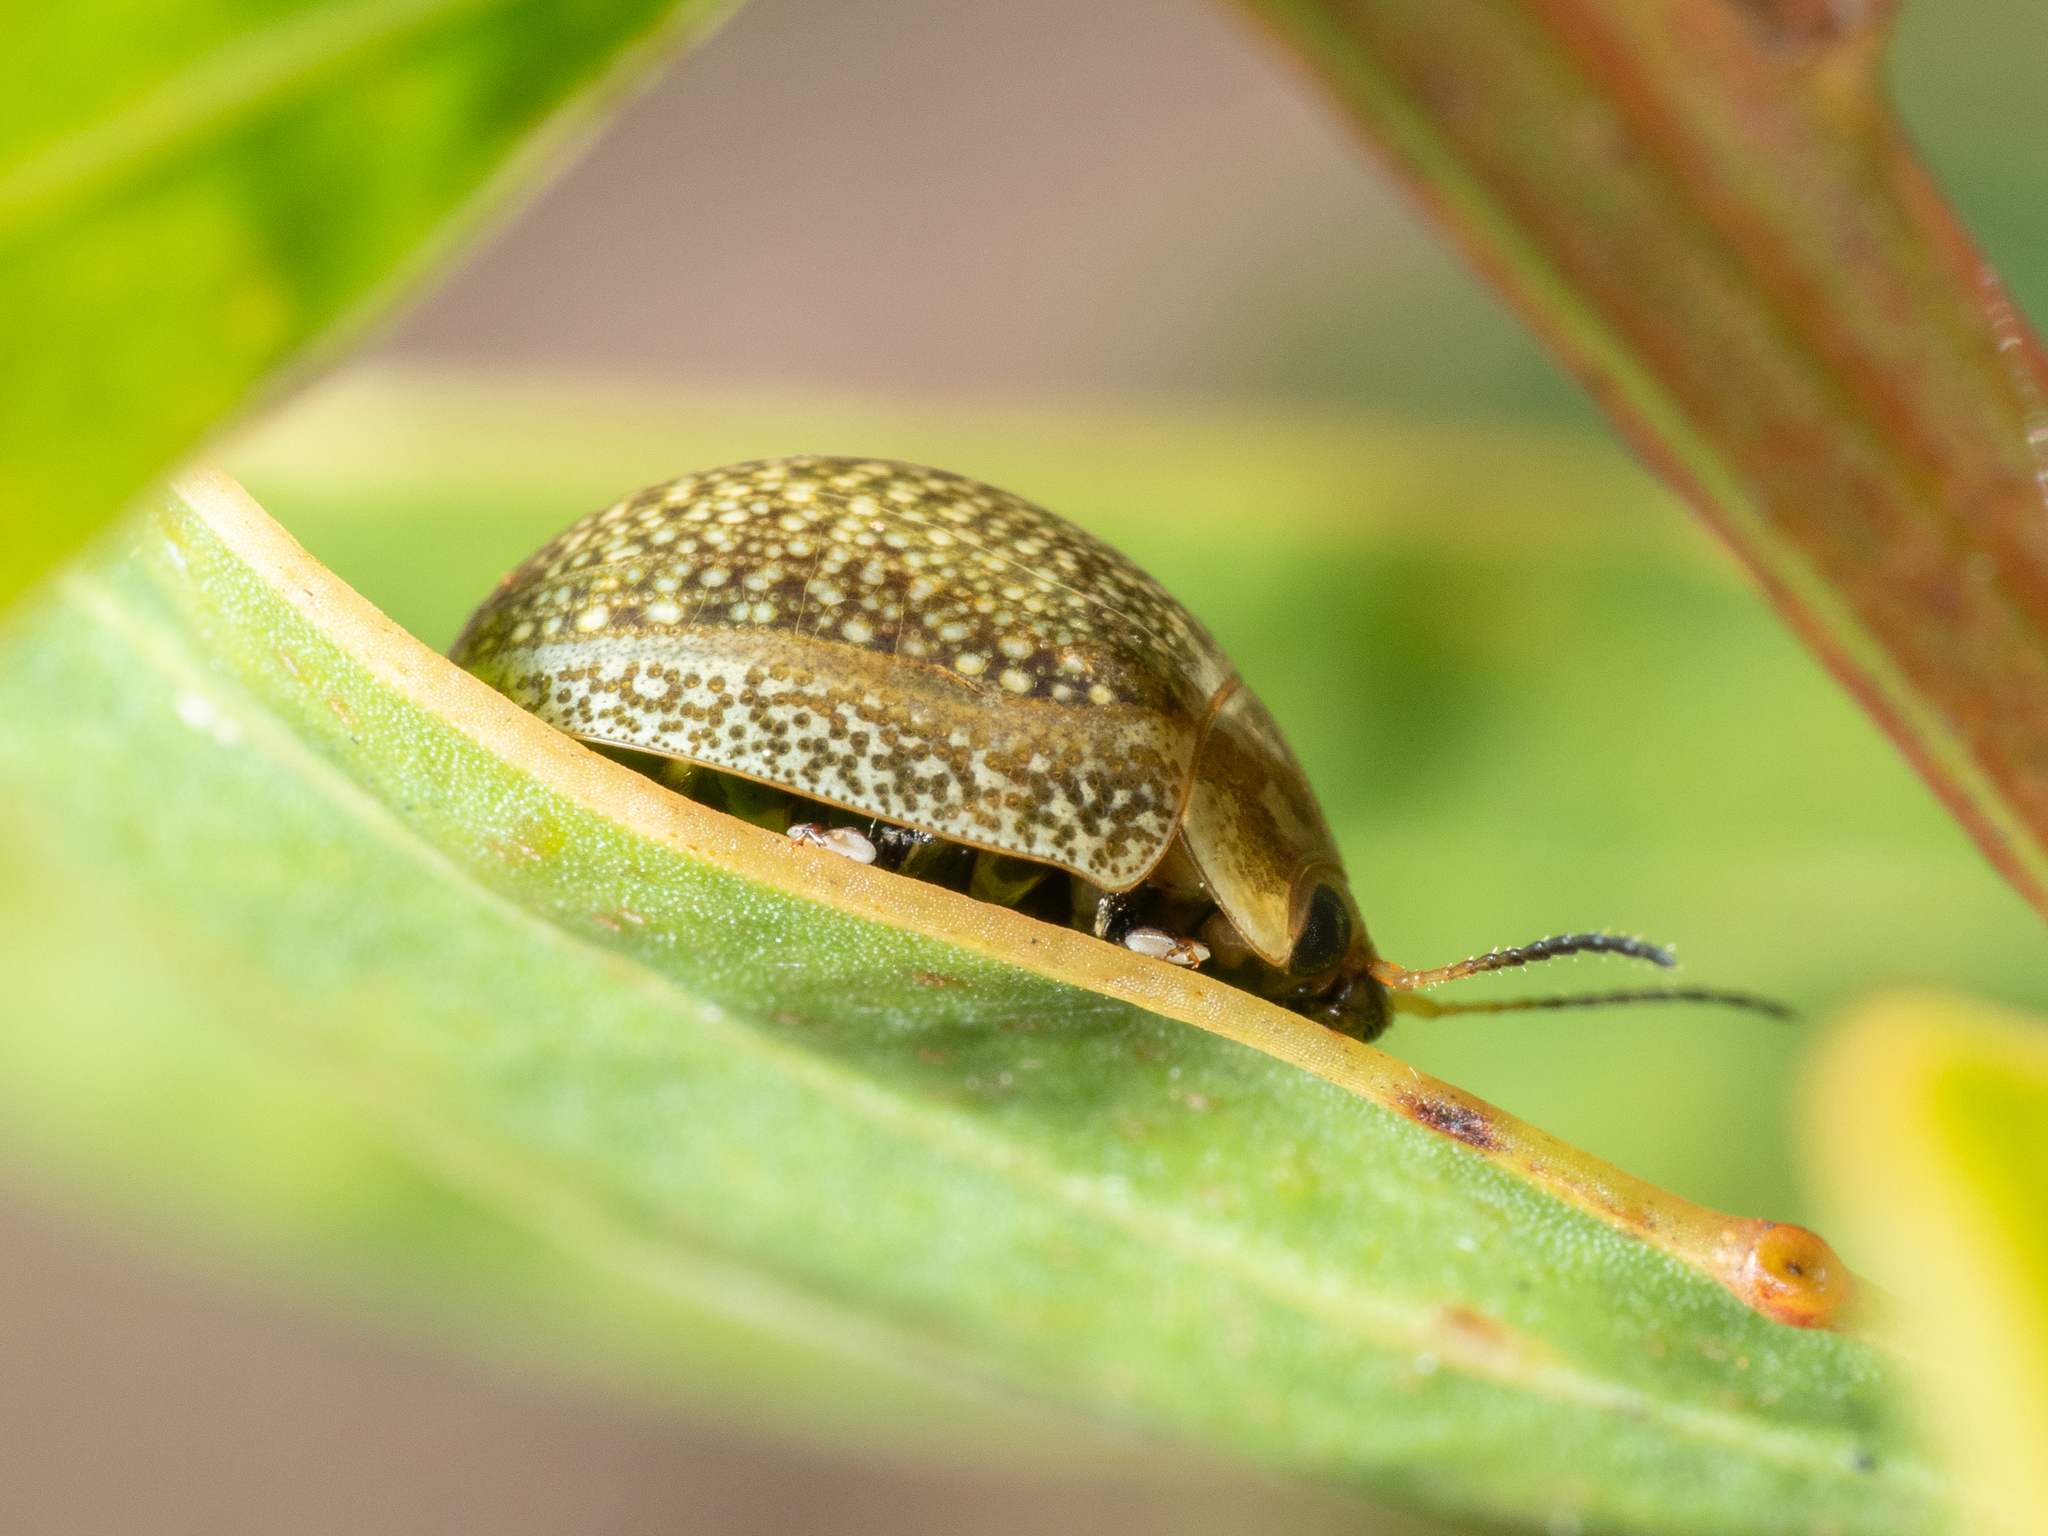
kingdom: Animalia
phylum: Arthropoda
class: Insecta
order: Coleoptera
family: Chrysomelidae
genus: Paropsisterna
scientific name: Paropsisterna cloelia
